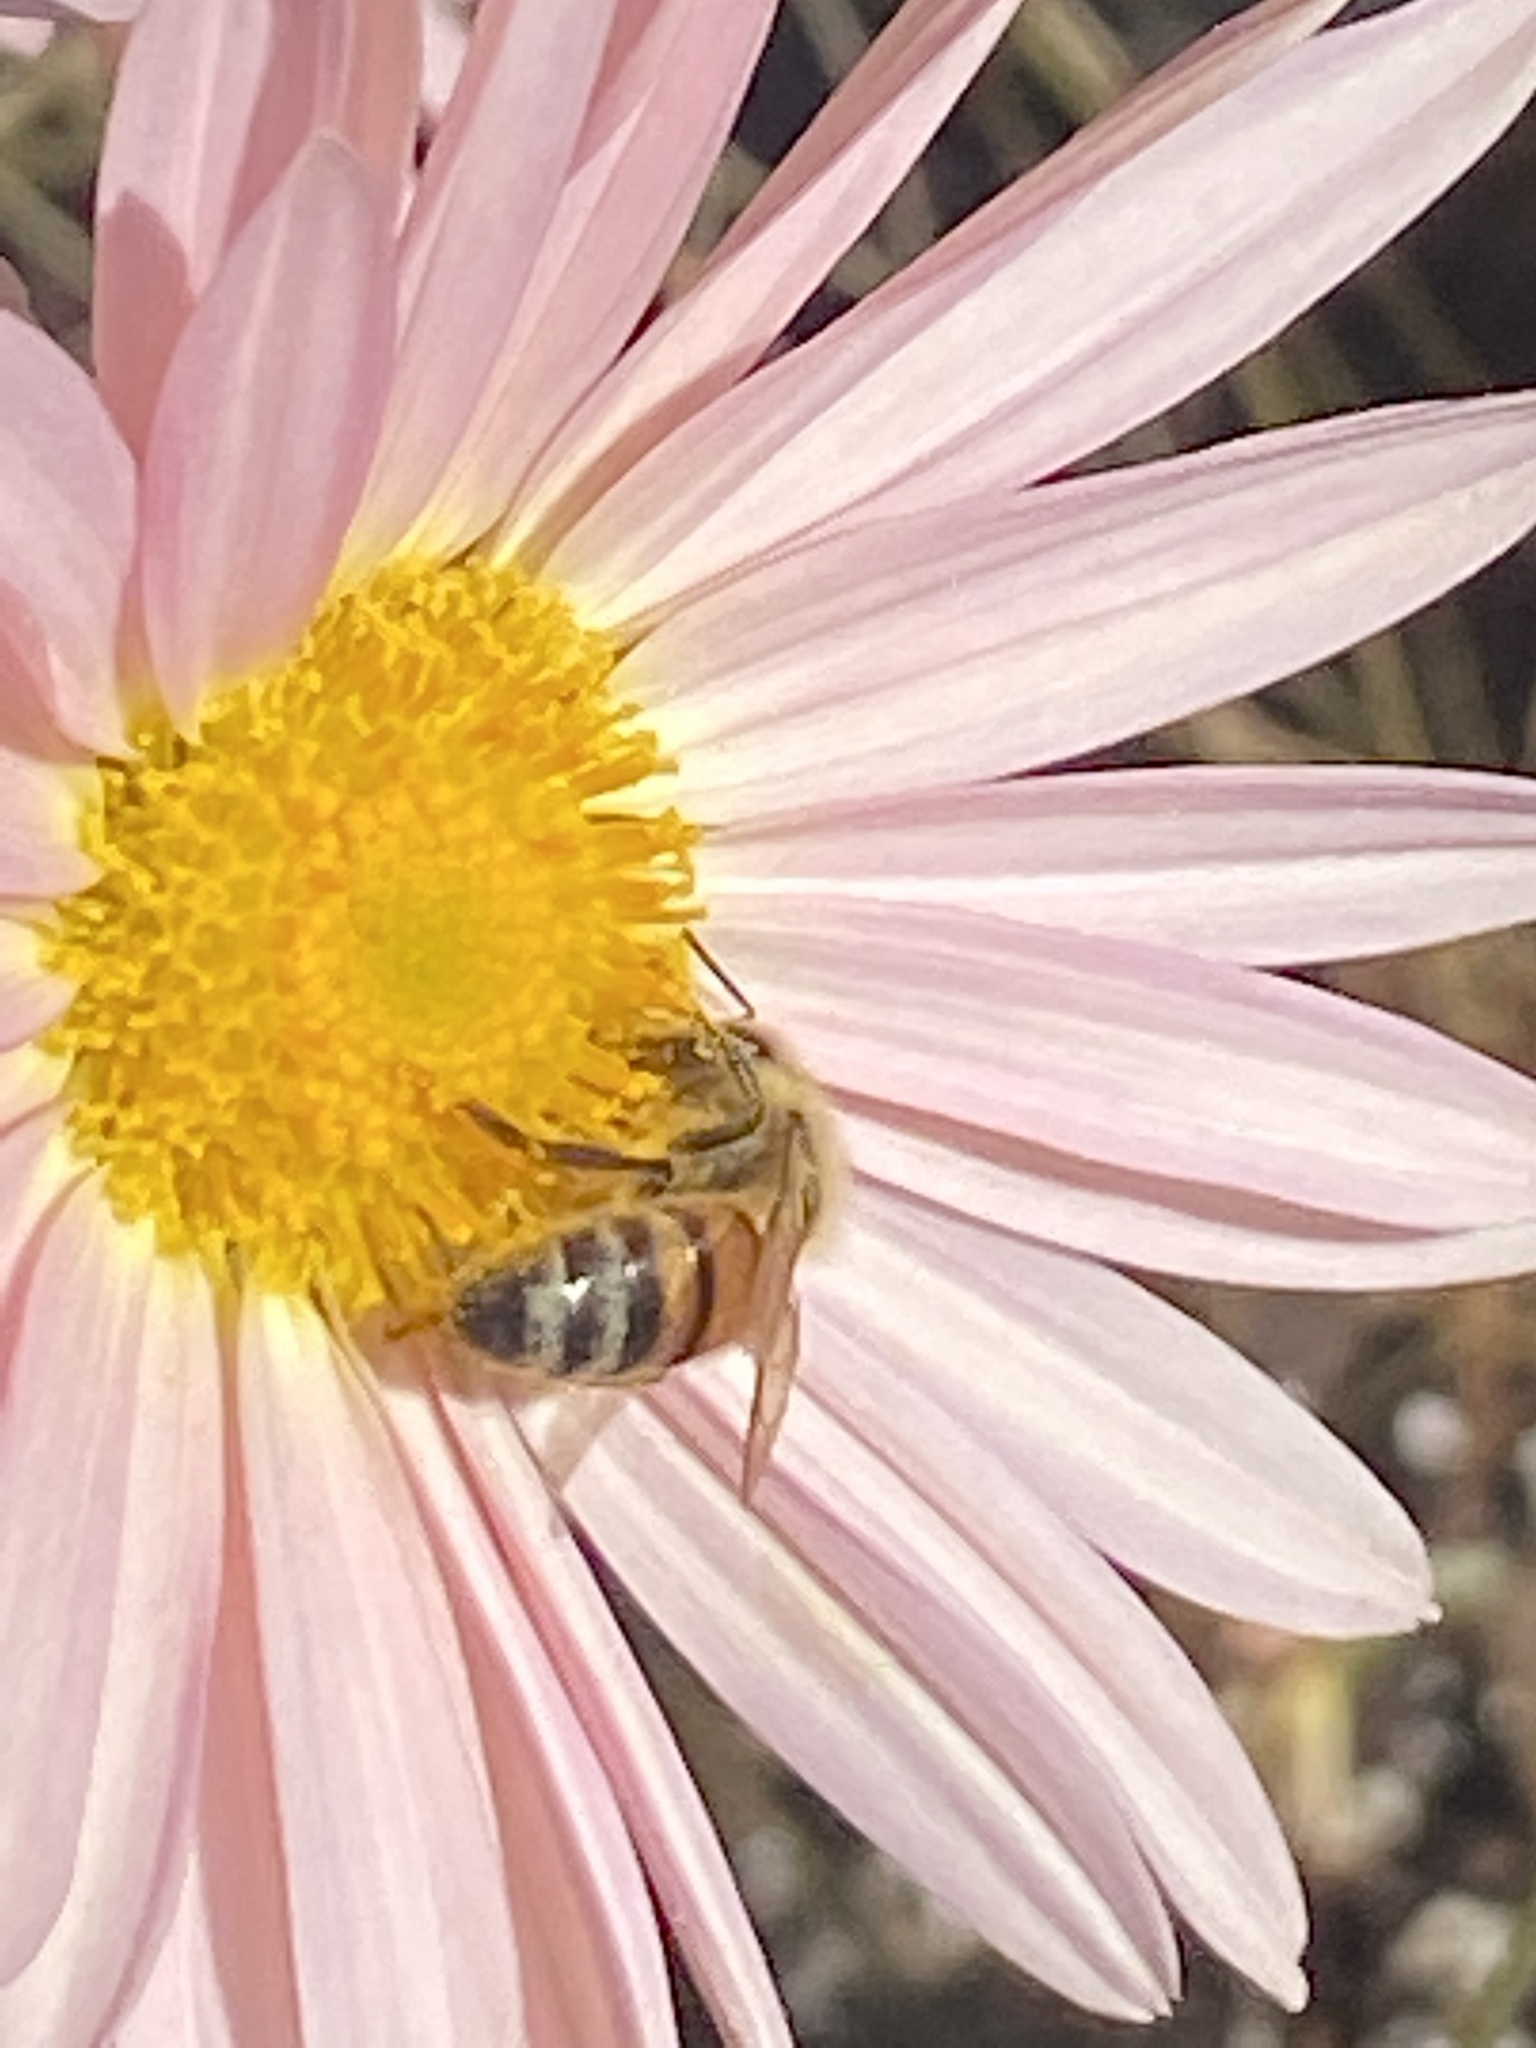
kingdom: Animalia
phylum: Arthropoda
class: Insecta
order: Hymenoptera
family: Apidae
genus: Apis
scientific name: Apis mellifera
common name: Honey bee
